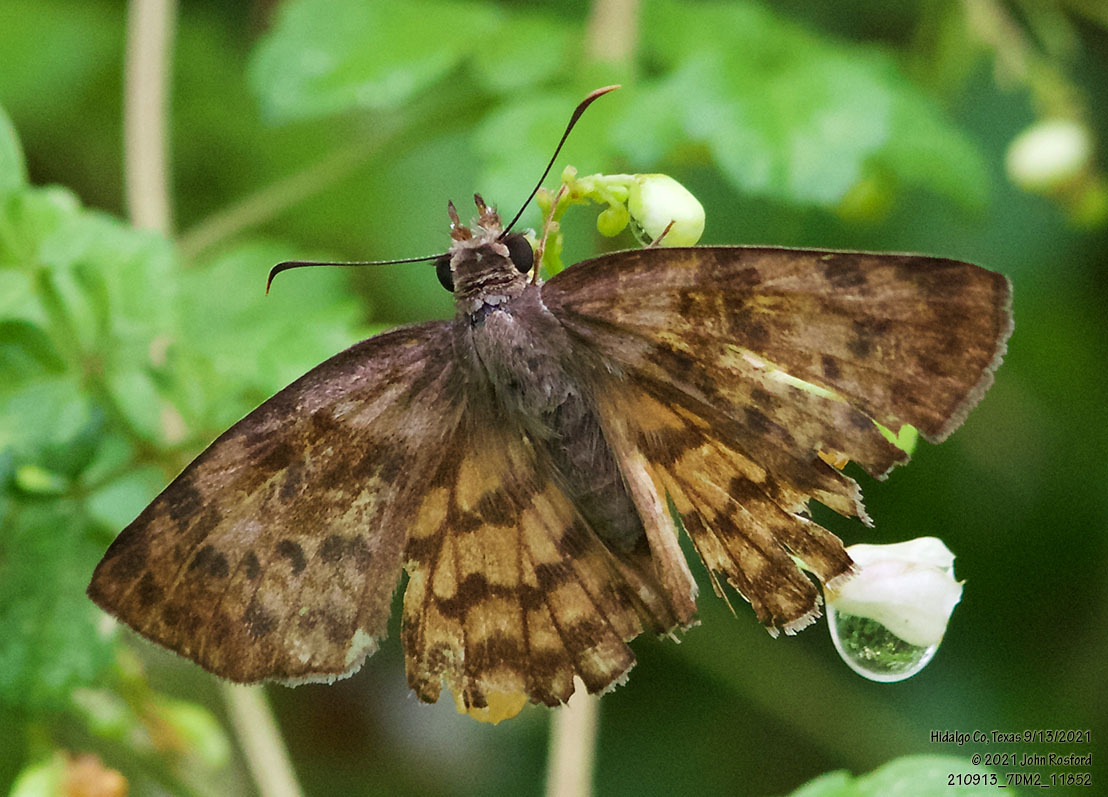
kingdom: Animalia
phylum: Arthropoda
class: Insecta
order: Lepidoptera
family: Hesperiidae
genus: Timochares
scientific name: Timochares ruptifasciata
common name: Brown-banded skipper
